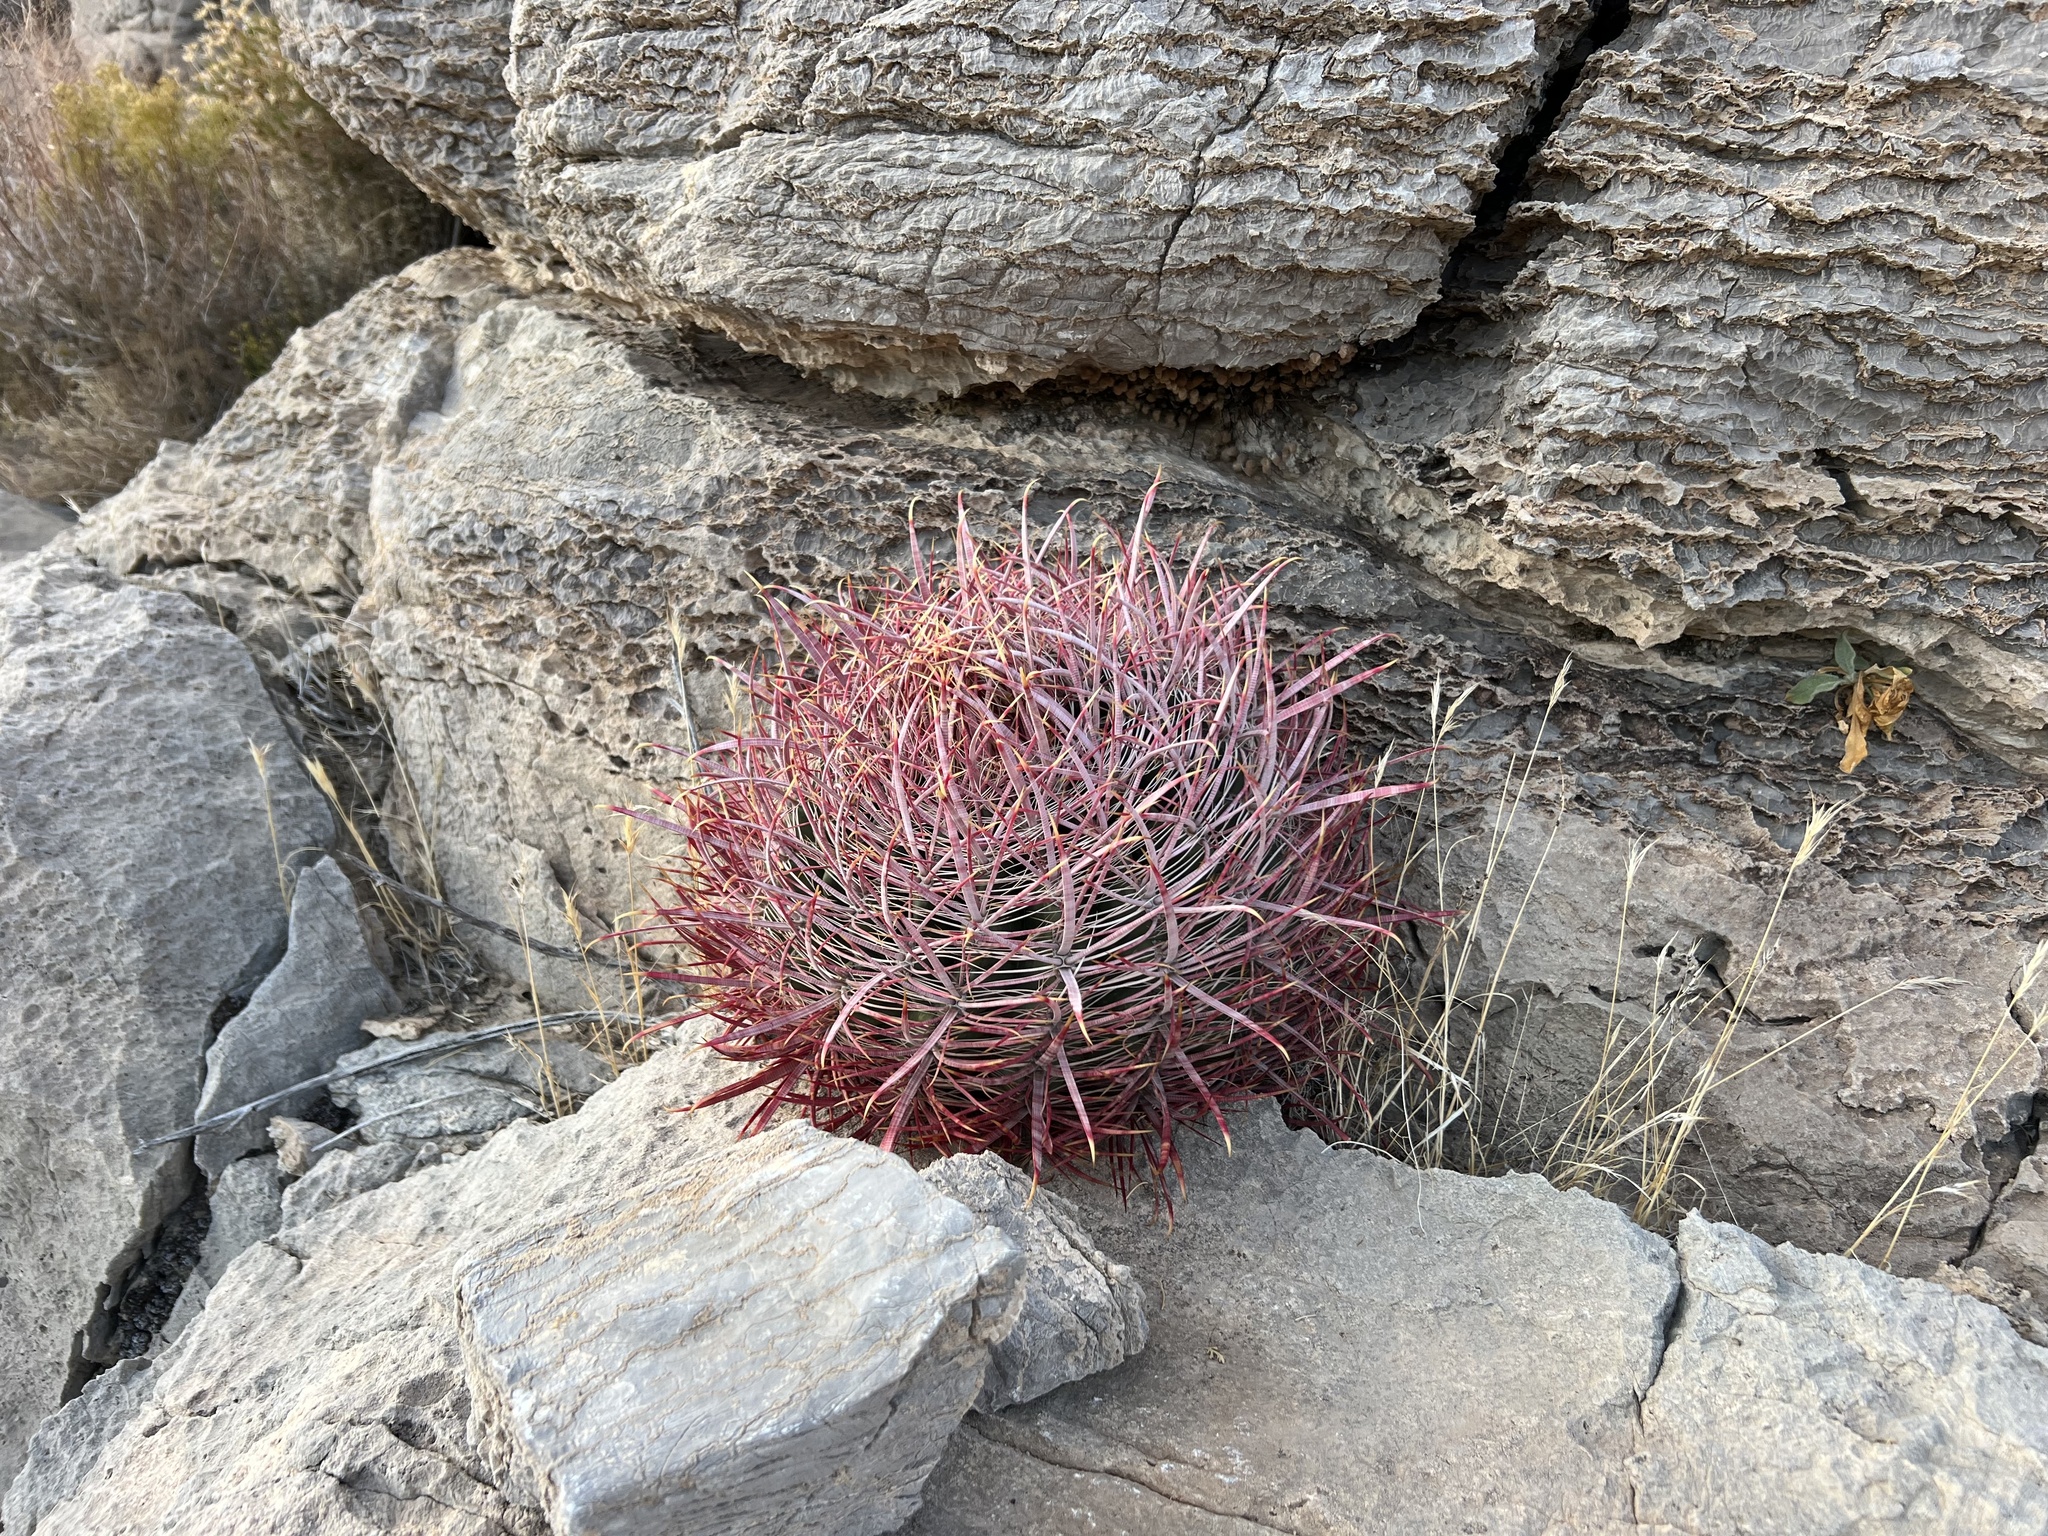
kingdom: Plantae
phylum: Tracheophyta
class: Magnoliopsida
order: Caryophyllales
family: Cactaceae
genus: Ferocactus
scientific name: Ferocactus cylindraceus
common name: California barrel cactus
